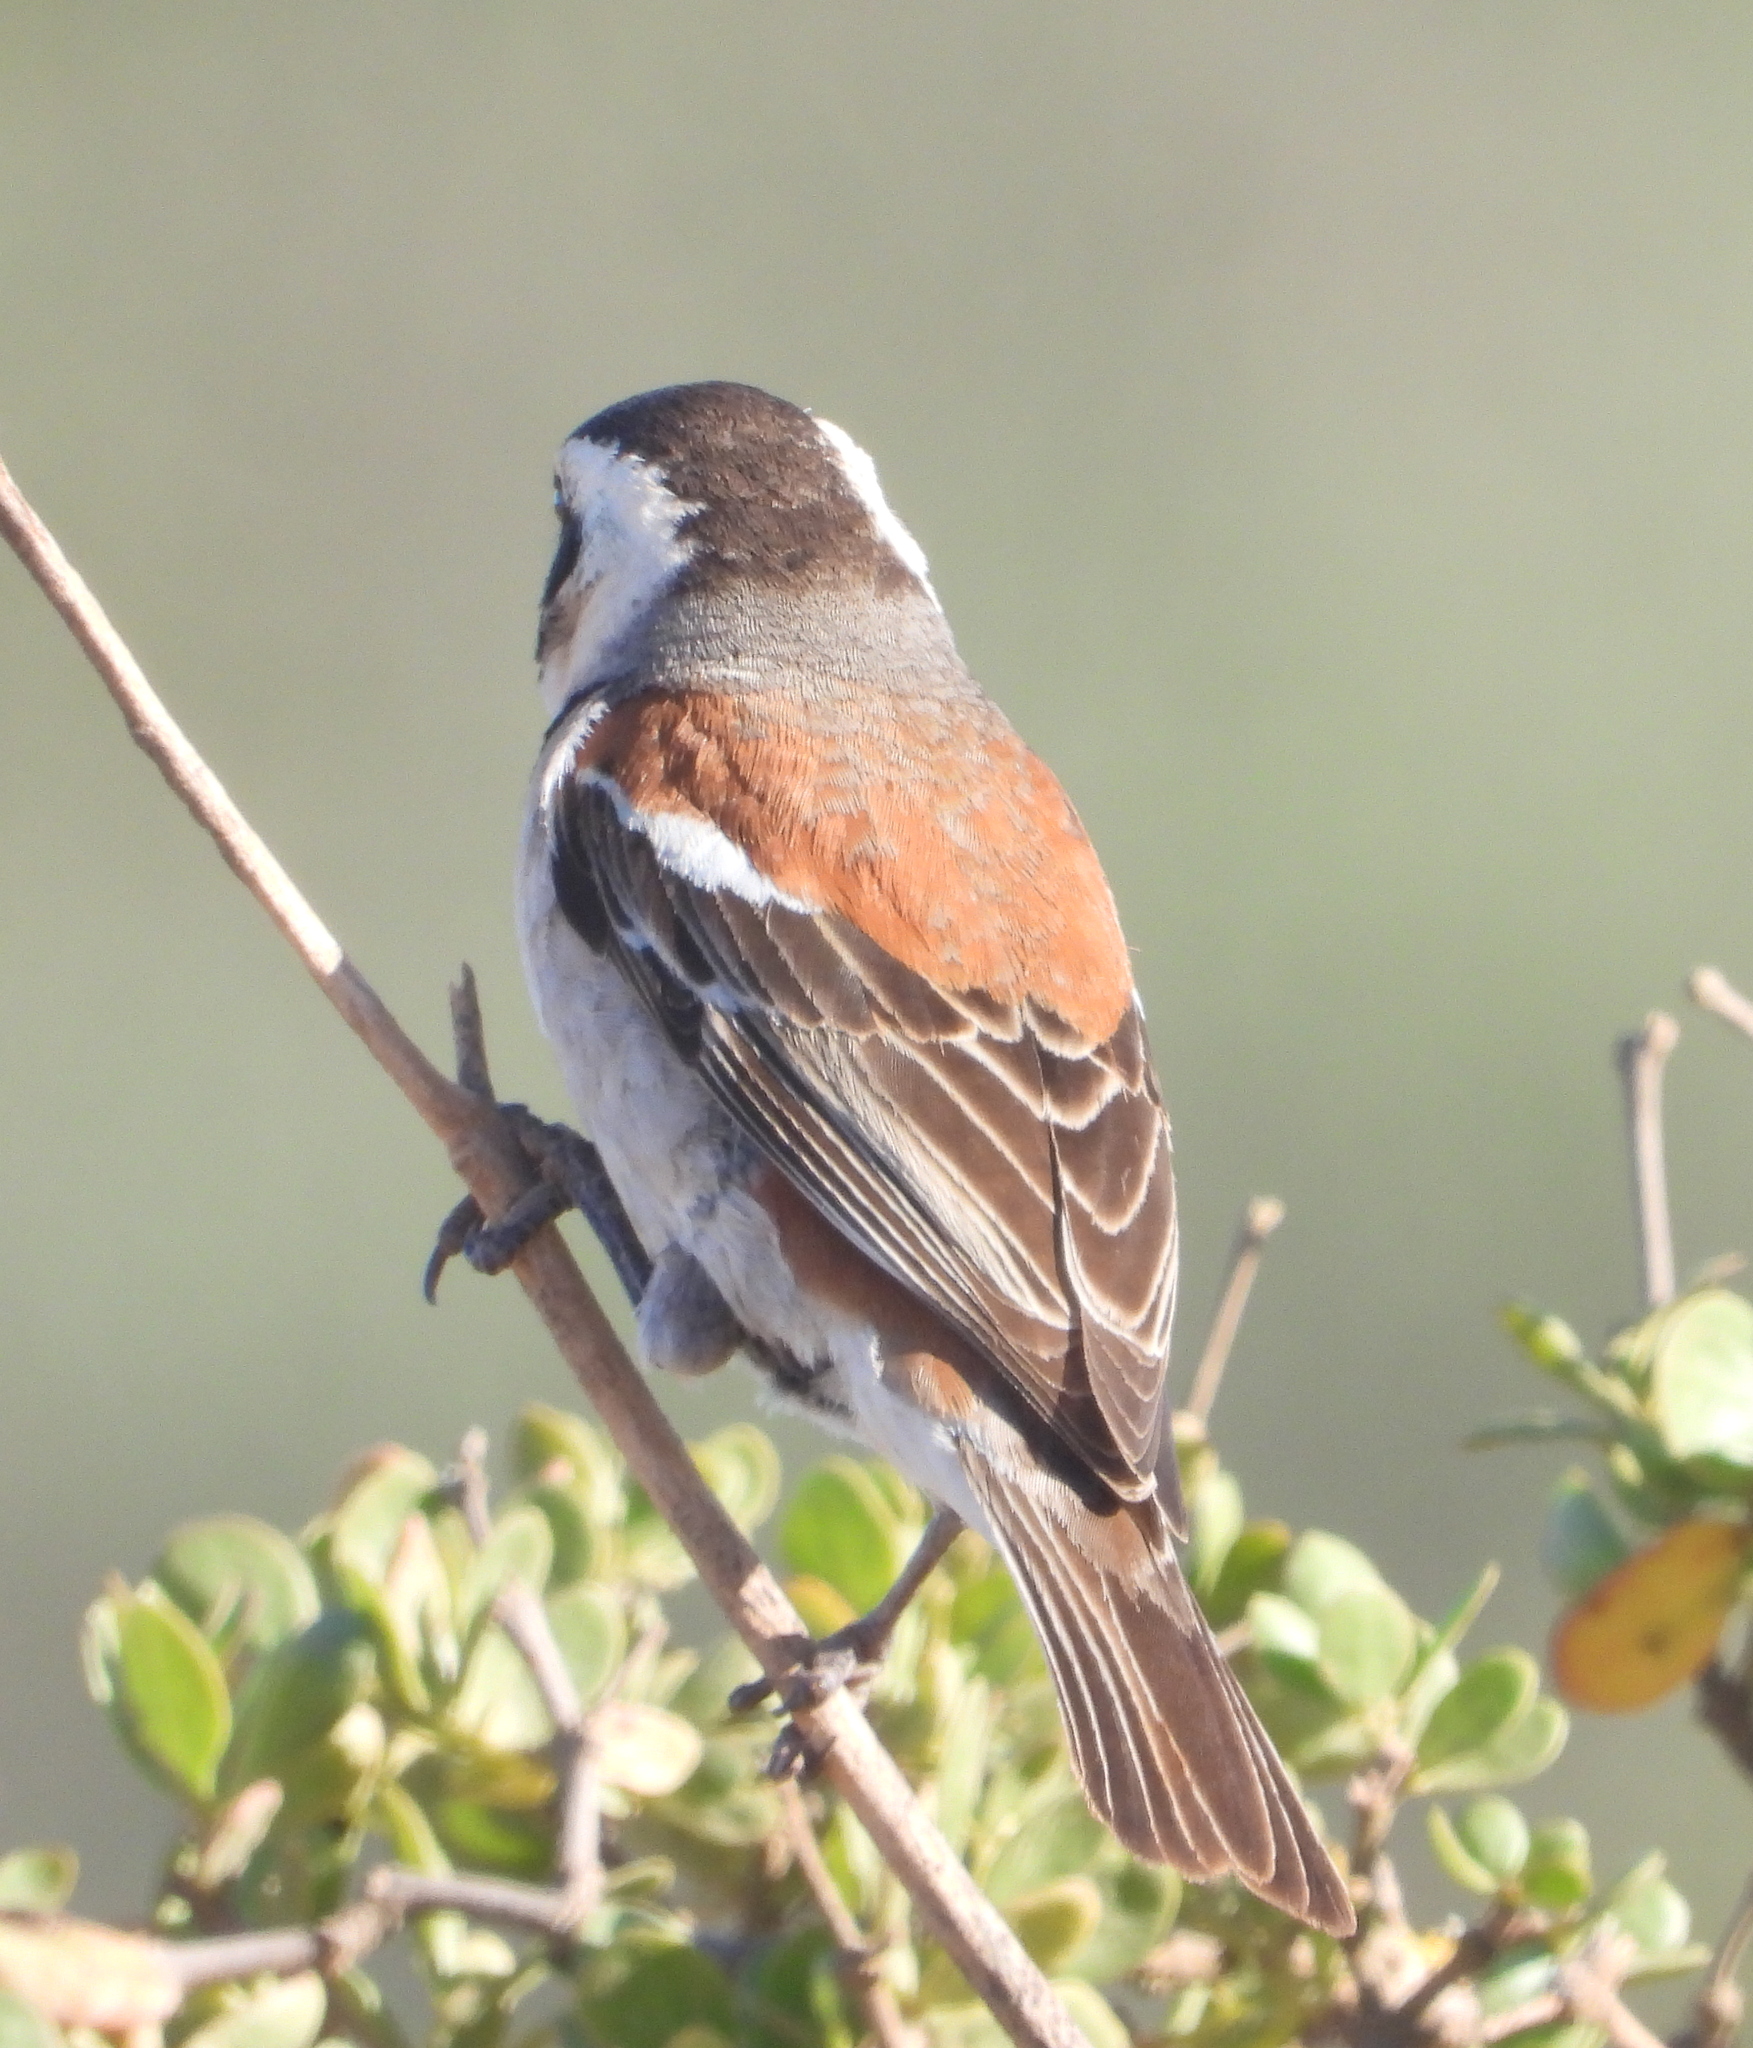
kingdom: Animalia
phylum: Chordata
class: Aves
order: Passeriformes
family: Passeridae
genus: Passer
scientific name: Passer melanurus
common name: Cape sparrow
